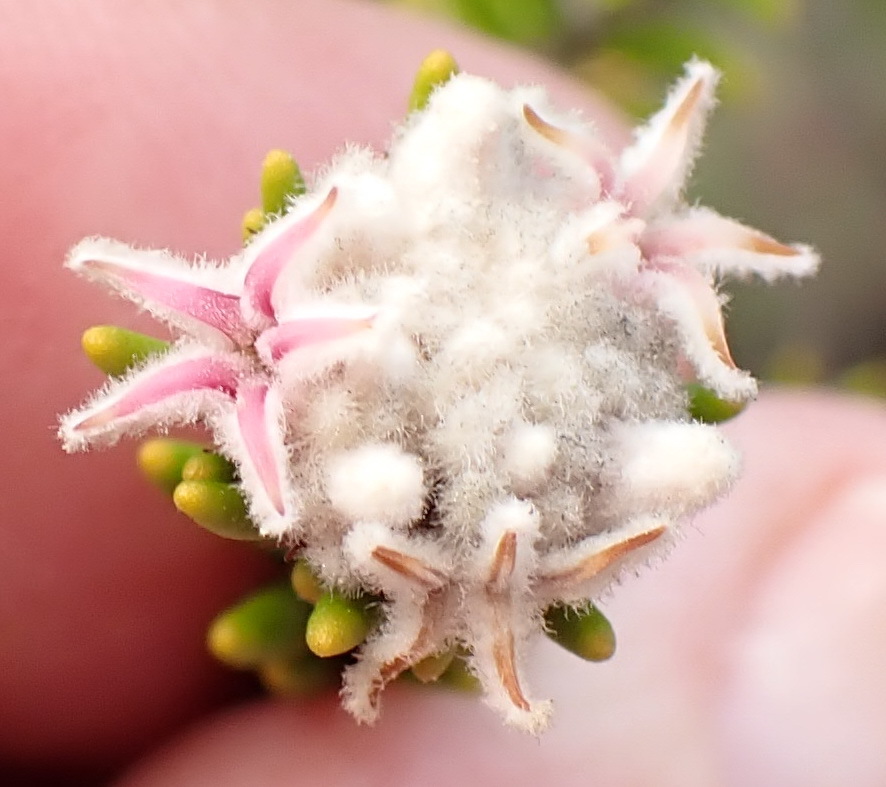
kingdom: Plantae
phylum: Tracheophyta
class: Magnoliopsida
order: Rosales
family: Rhamnaceae
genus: Trichocephalus
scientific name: Trichocephalus stipularis
